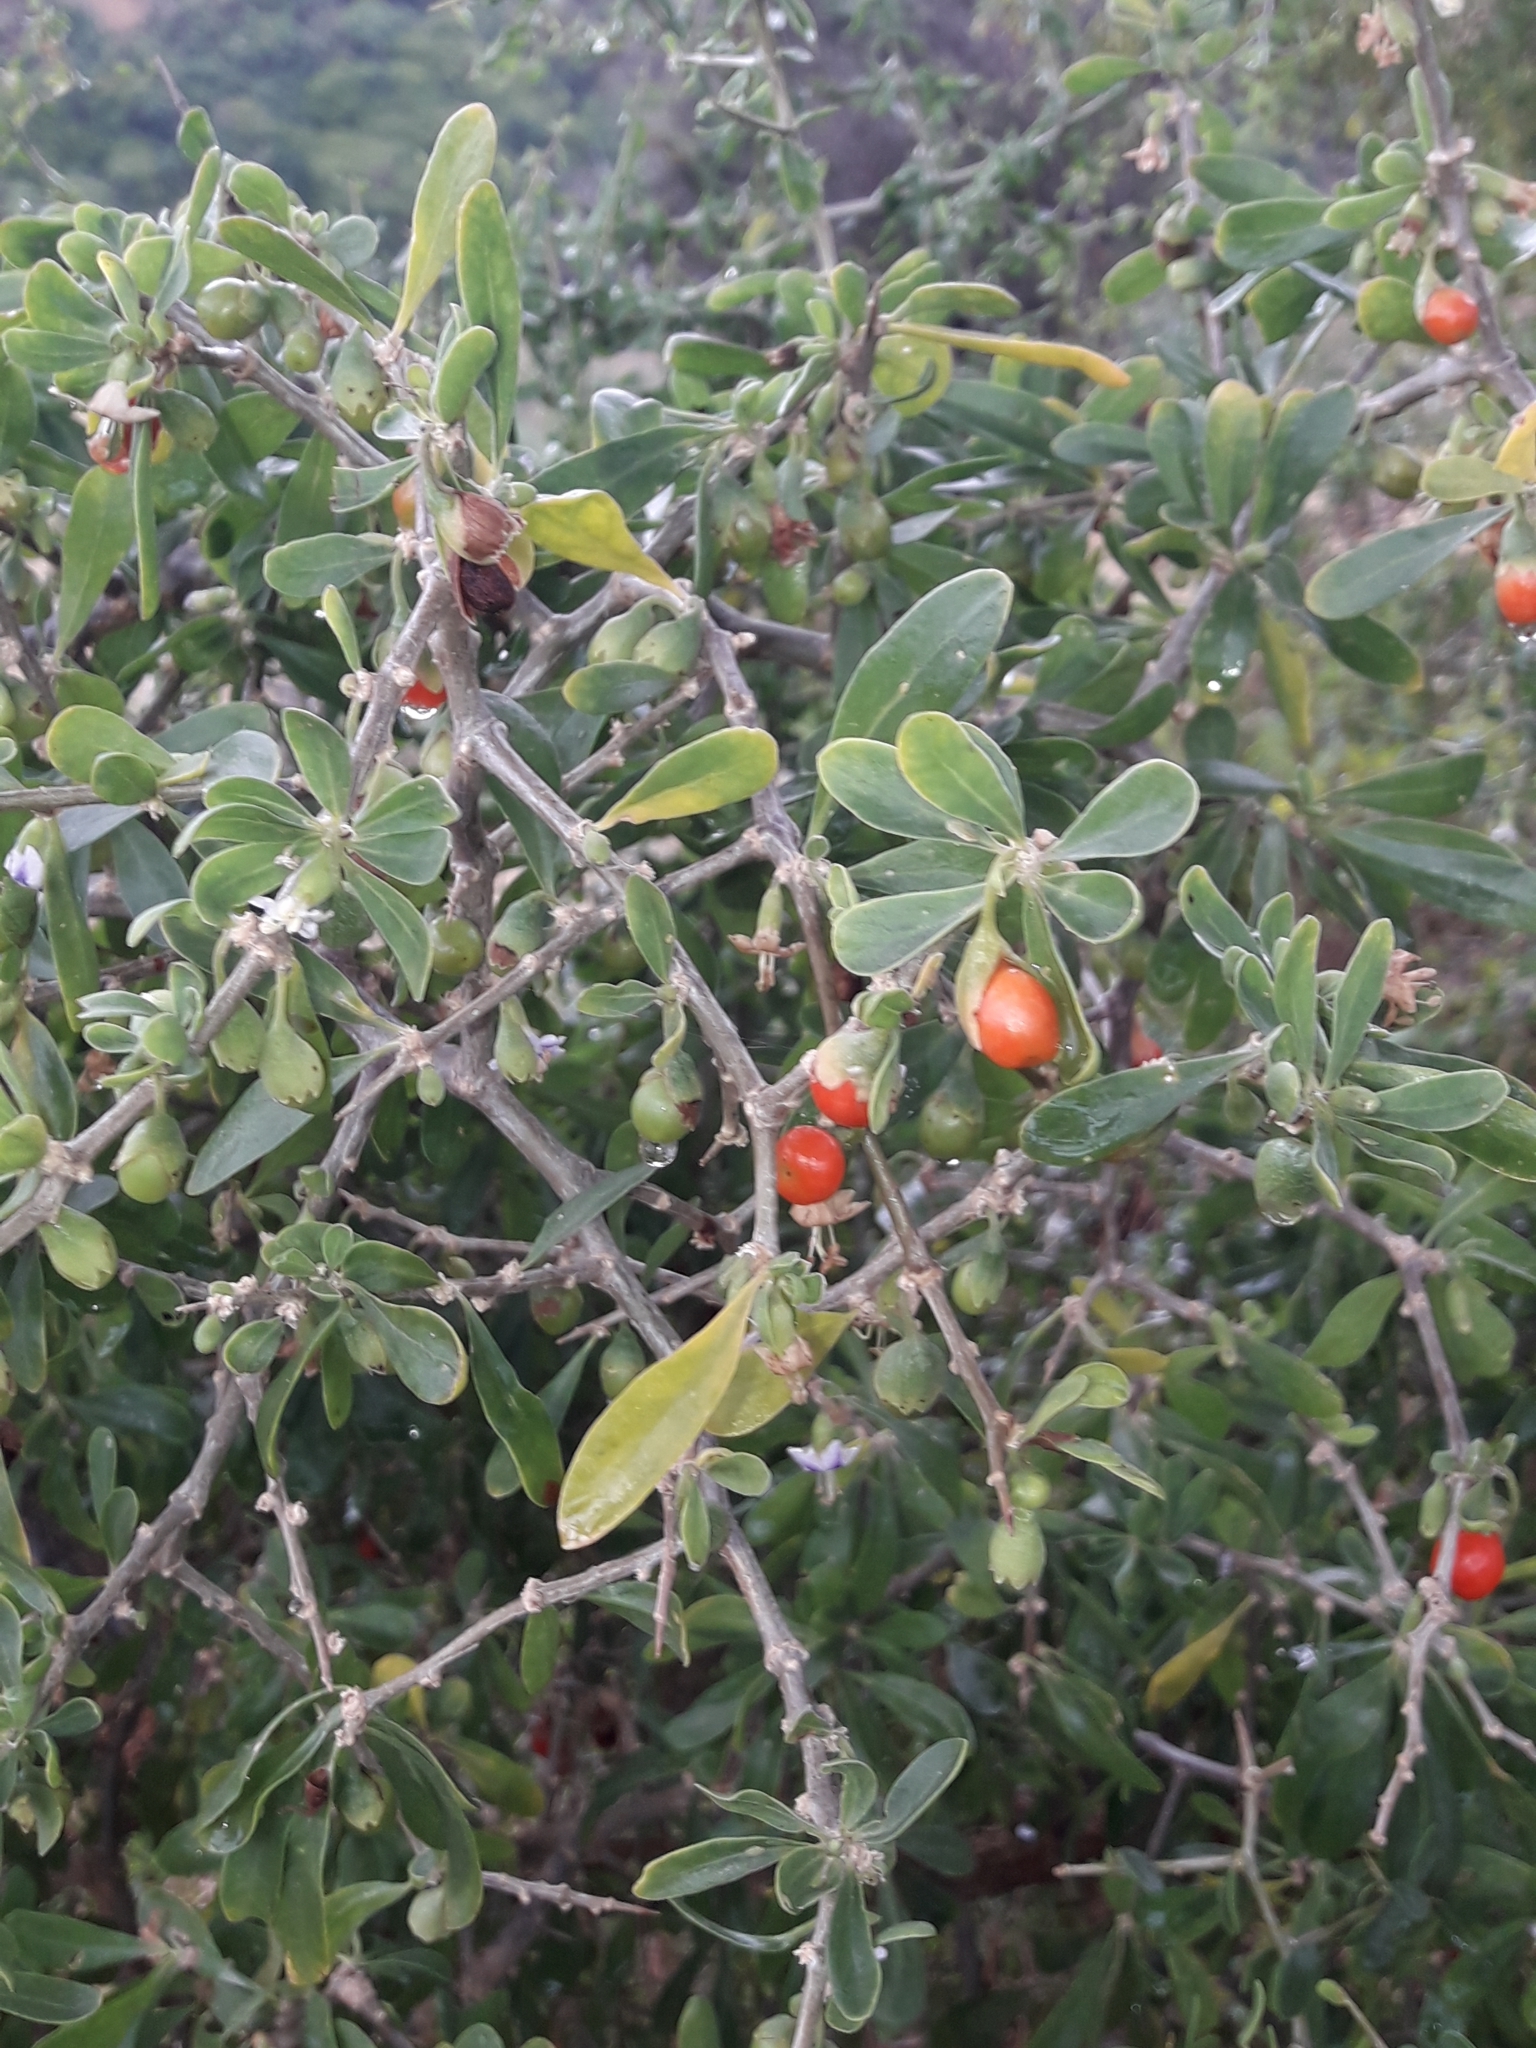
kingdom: Plantae
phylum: Tracheophyta
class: Magnoliopsida
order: Solanales
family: Solanaceae
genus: Lycium
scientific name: Lycium ferocissimum
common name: African boxthorn
